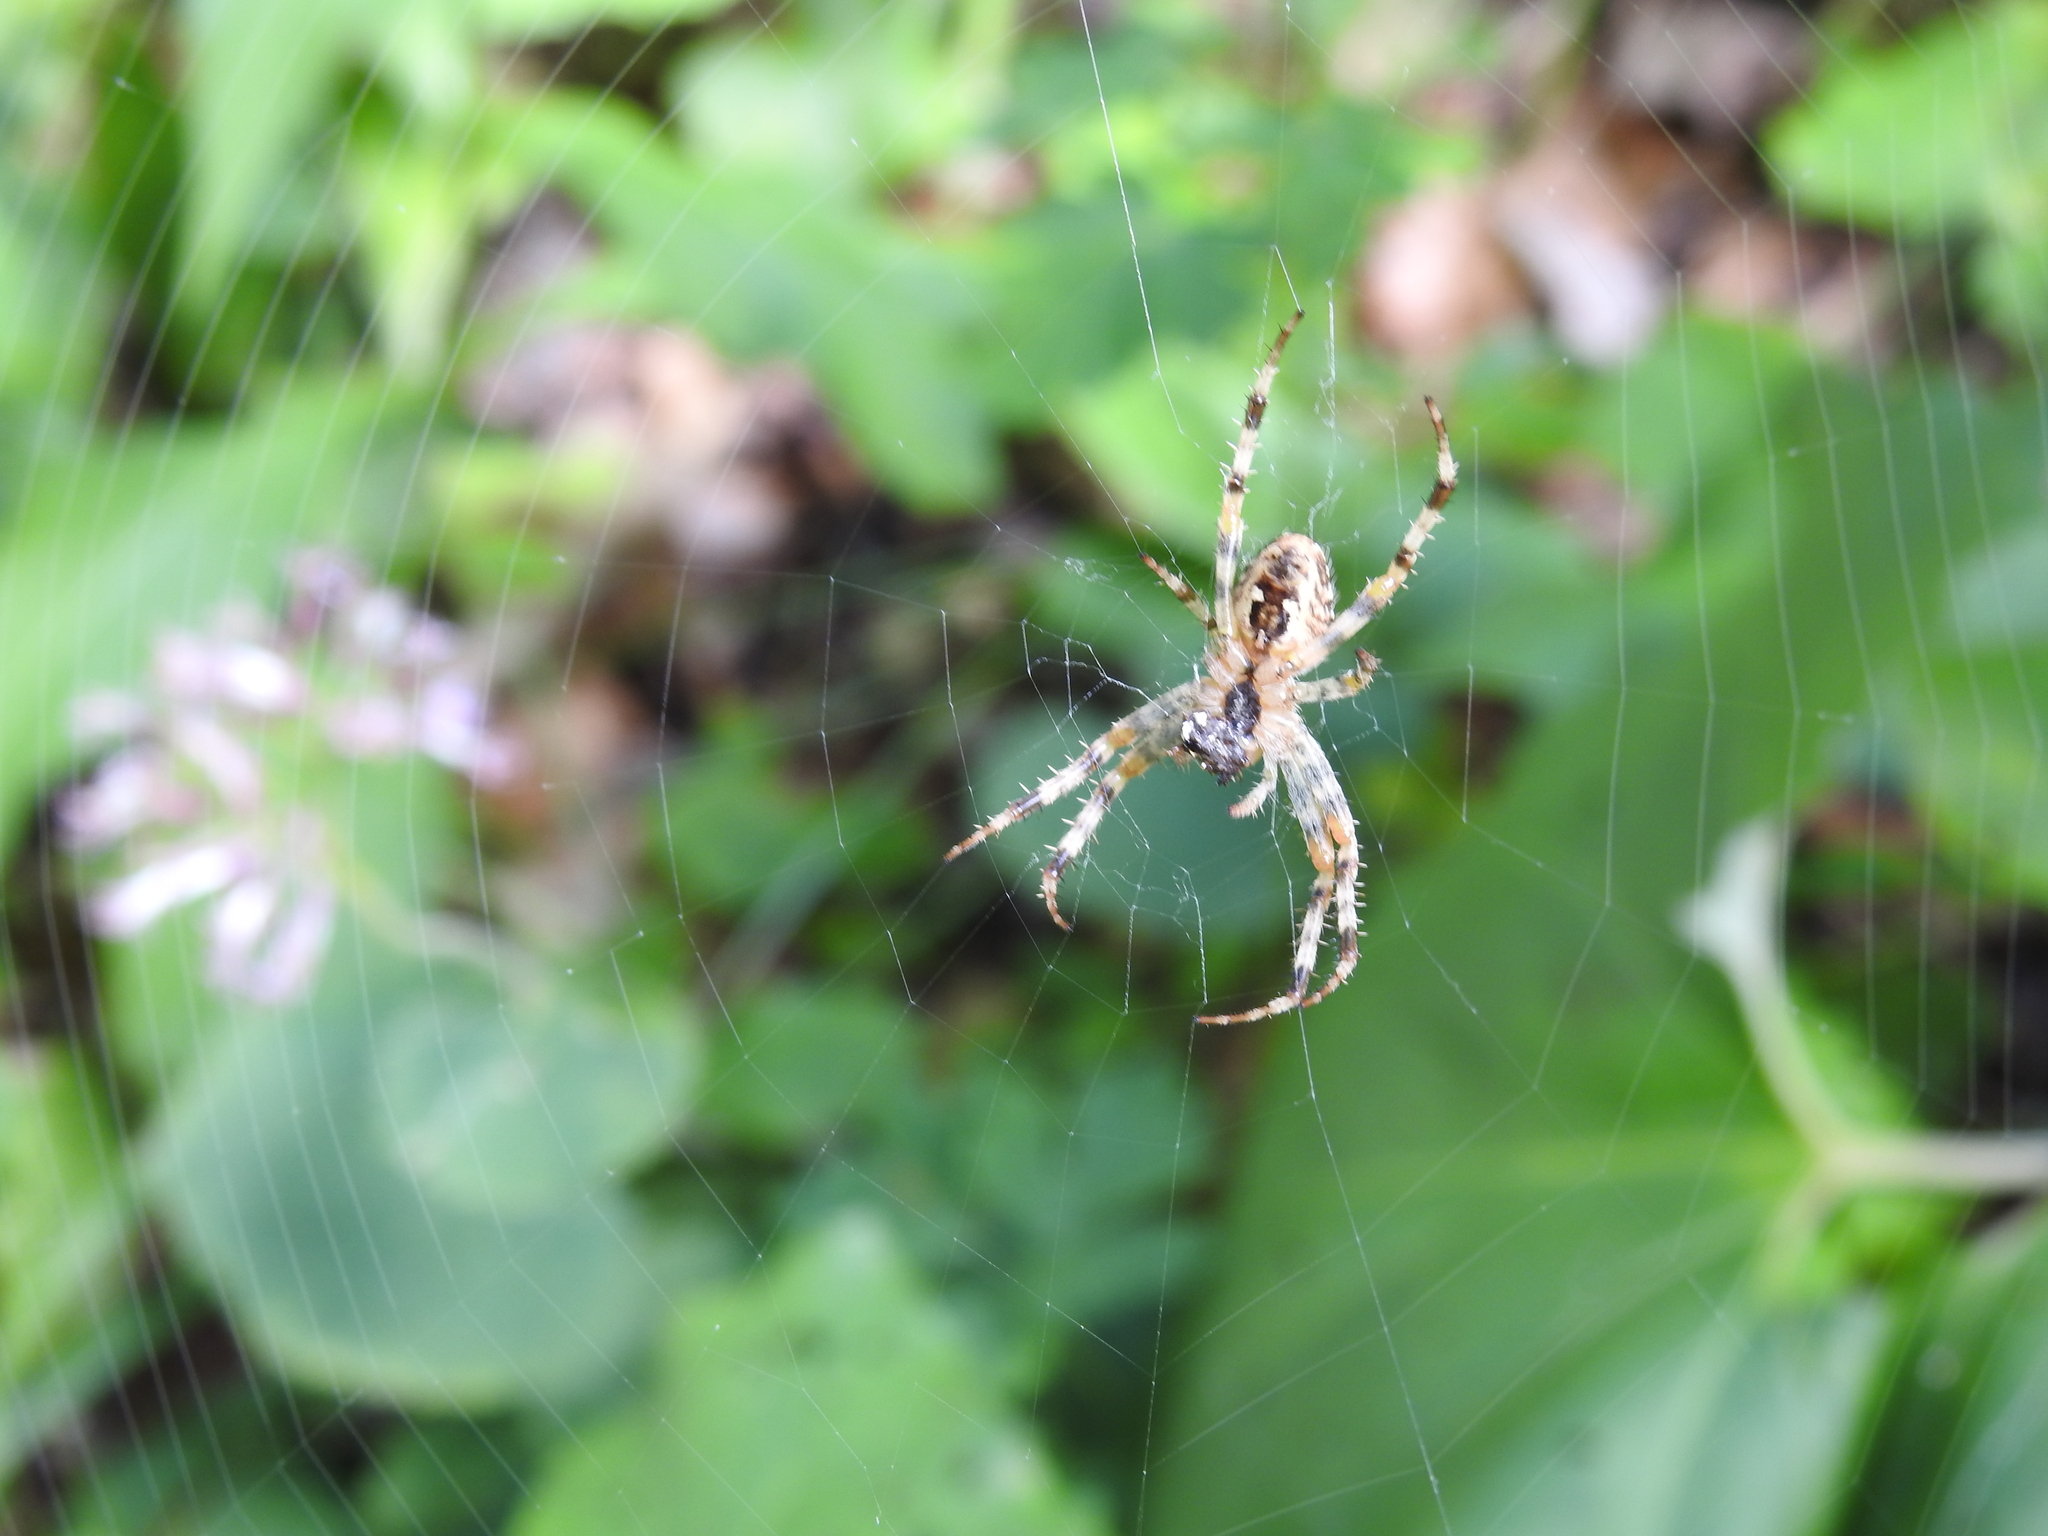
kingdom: Animalia
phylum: Arthropoda
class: Arachnida
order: Araneae
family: Araneidae
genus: Araneus
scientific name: Araneus diadematus
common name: Cross orbweaver
